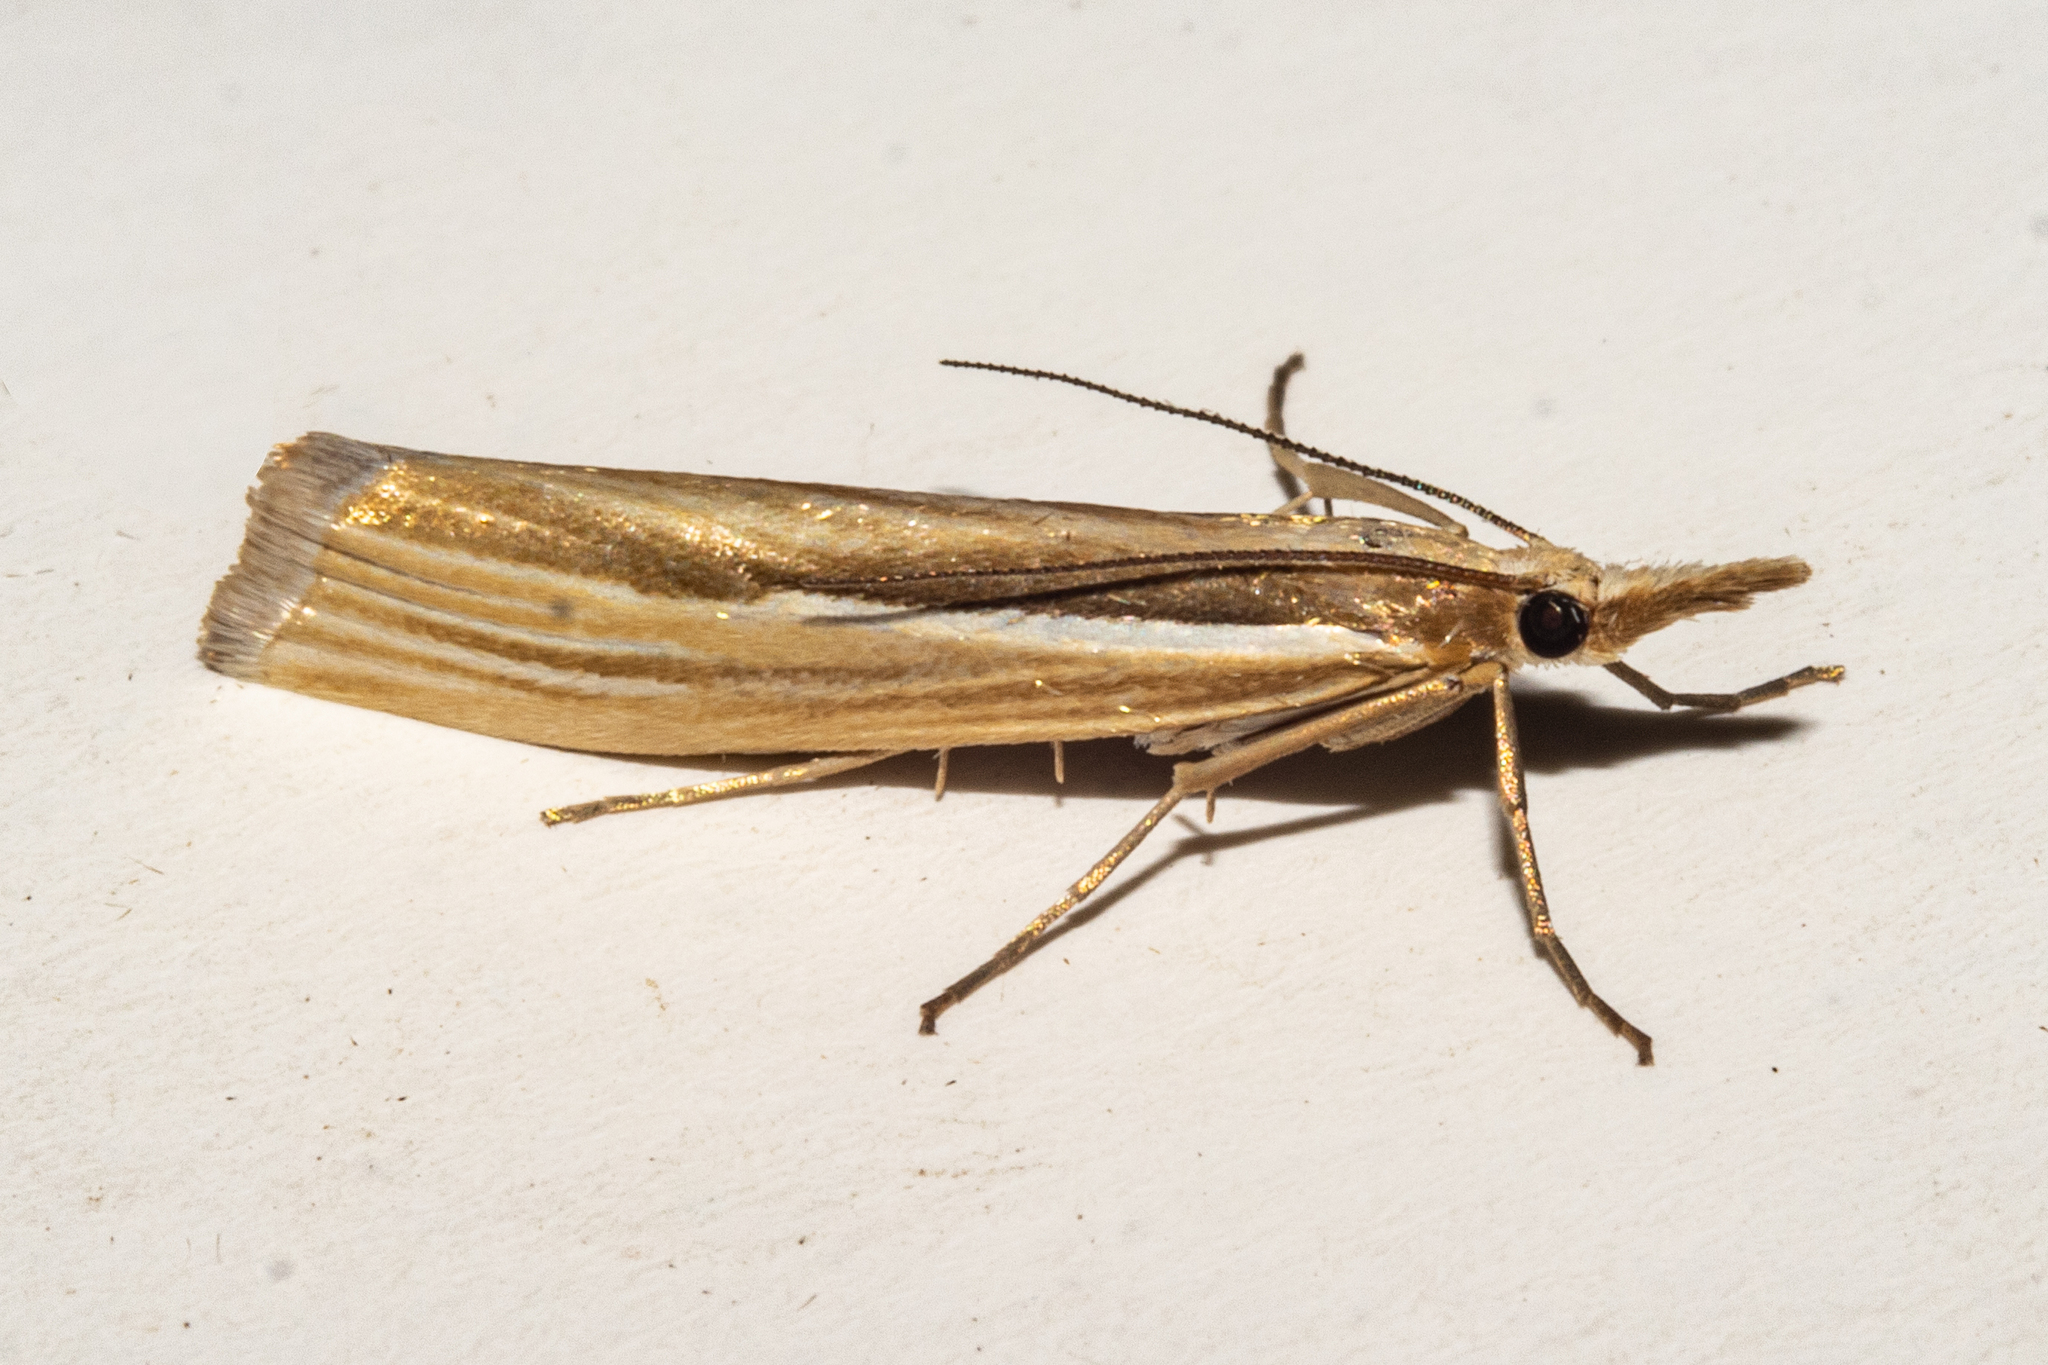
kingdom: Animalia
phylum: Arthropoda
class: Insecta
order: Lepidoptera
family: Crambidae
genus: Orocrambus
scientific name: Orocrambus ramosellus
